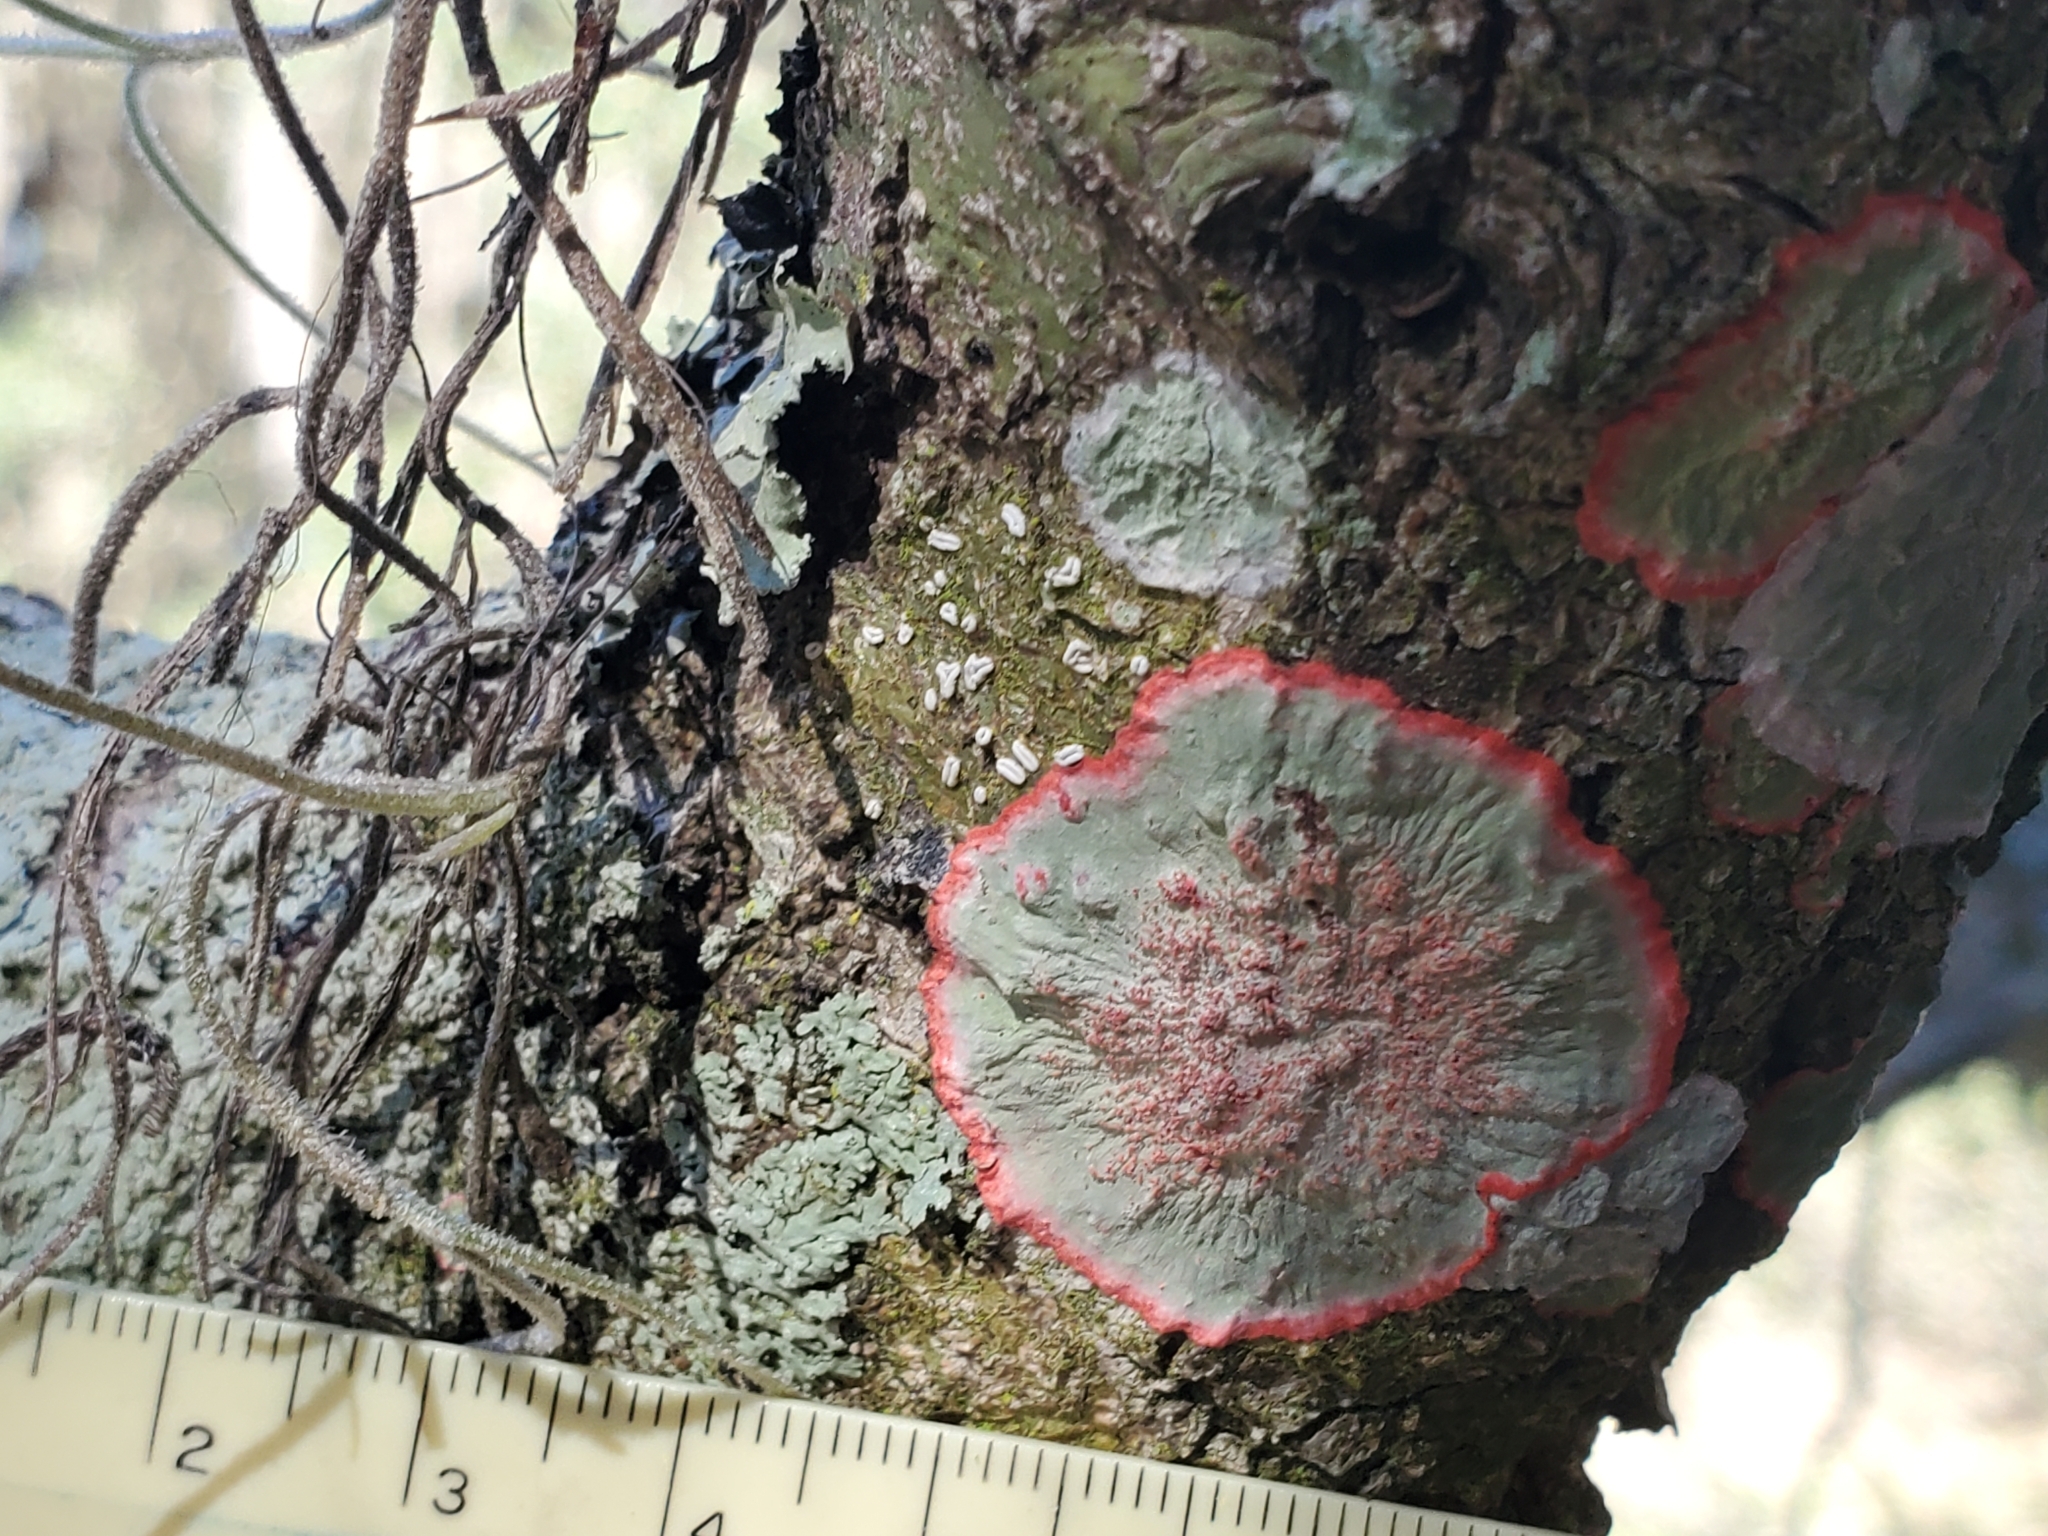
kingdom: Fungi
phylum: Ascomycota
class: Arthoniomycetes
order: Arthoniales
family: Arthoniaceae
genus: Herpothallon
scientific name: Herpothallon rubrocinctum
